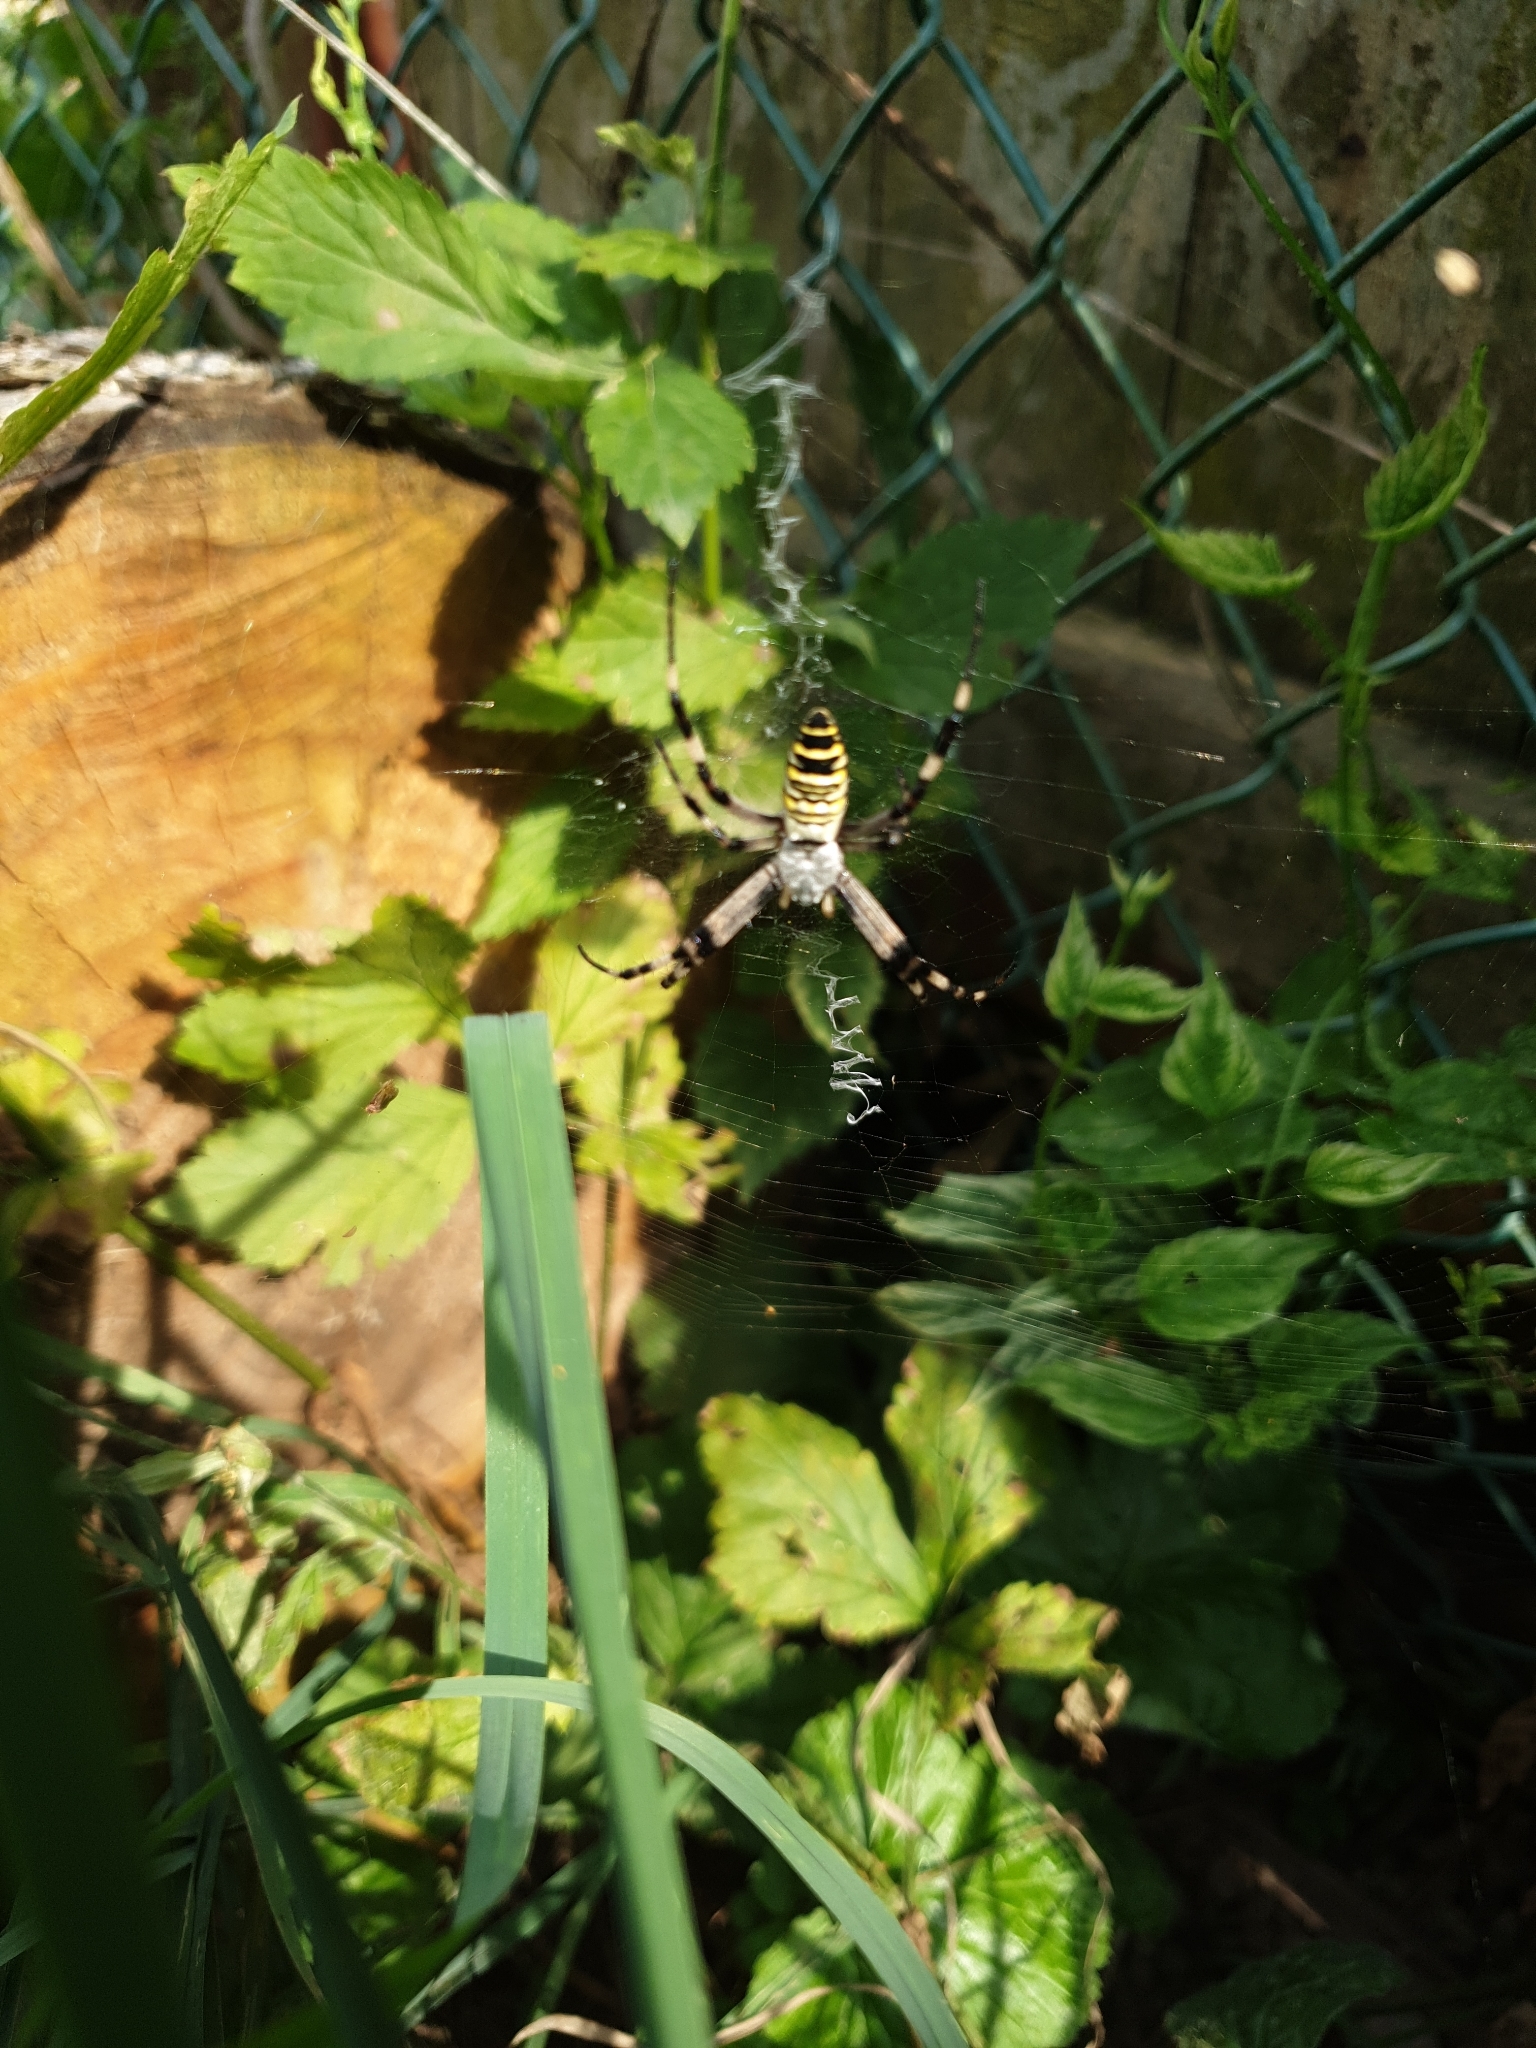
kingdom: Animalia
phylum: Arthropoda
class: Arachnida
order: Araneae
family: Araneidae
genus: Argiope
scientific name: Argiope bruennichi
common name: Wasp spider
